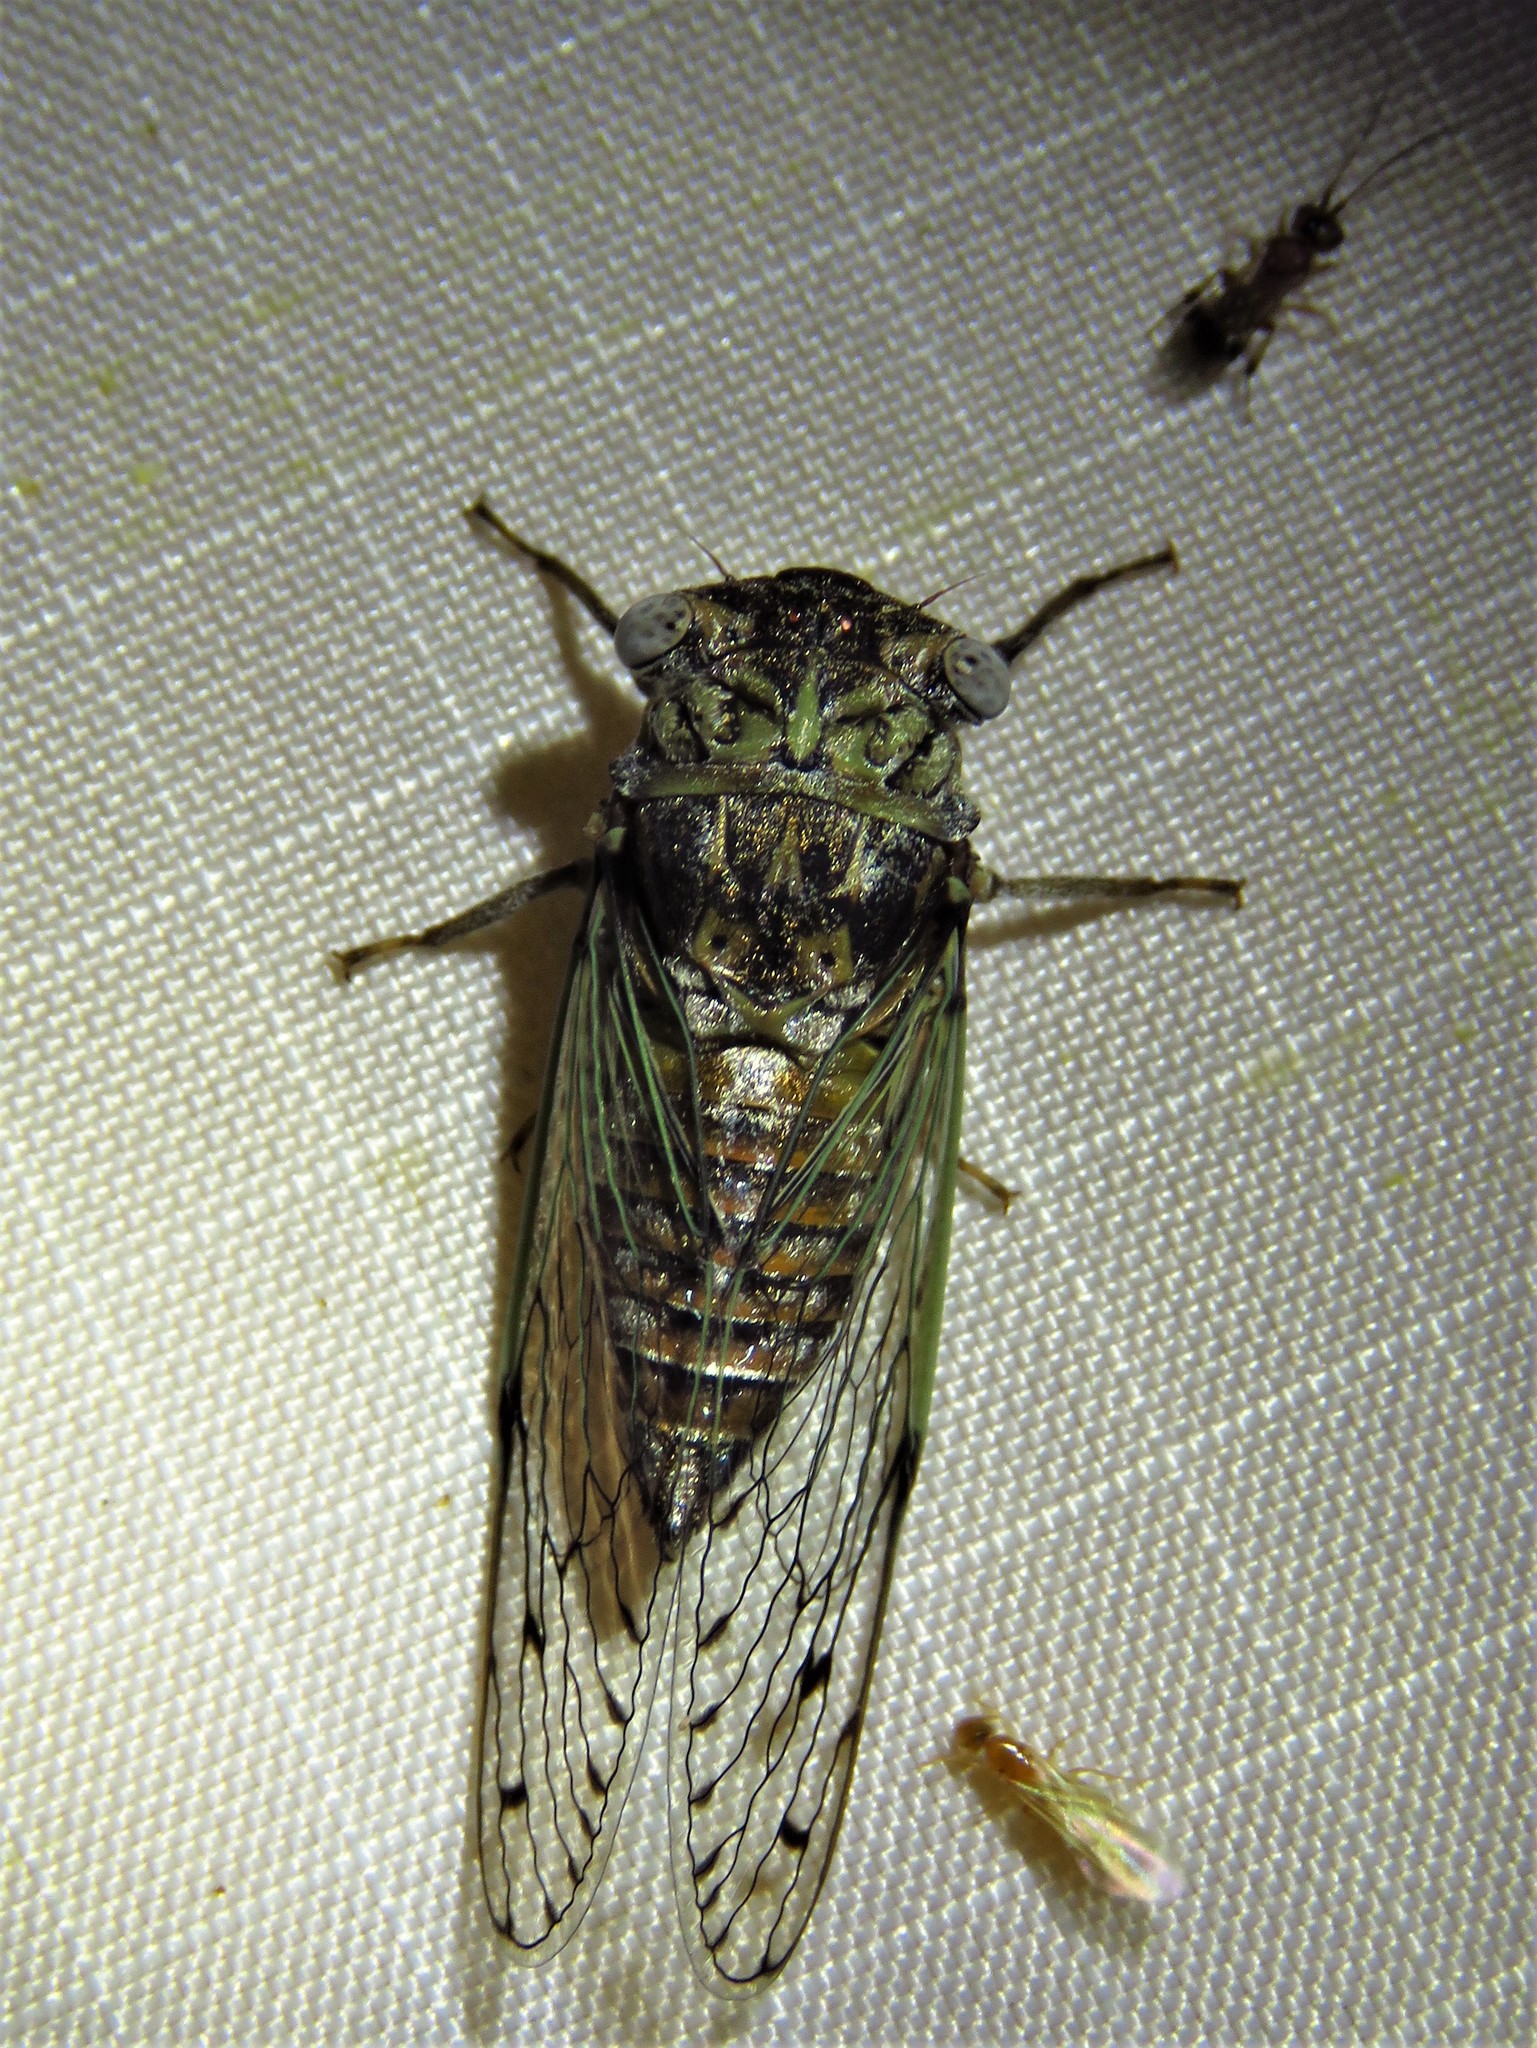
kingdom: Animalia
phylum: Arthropoda
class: Insecta
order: Hemiptera
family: Cicadidae
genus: Pacarina
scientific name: Pacarina puella
